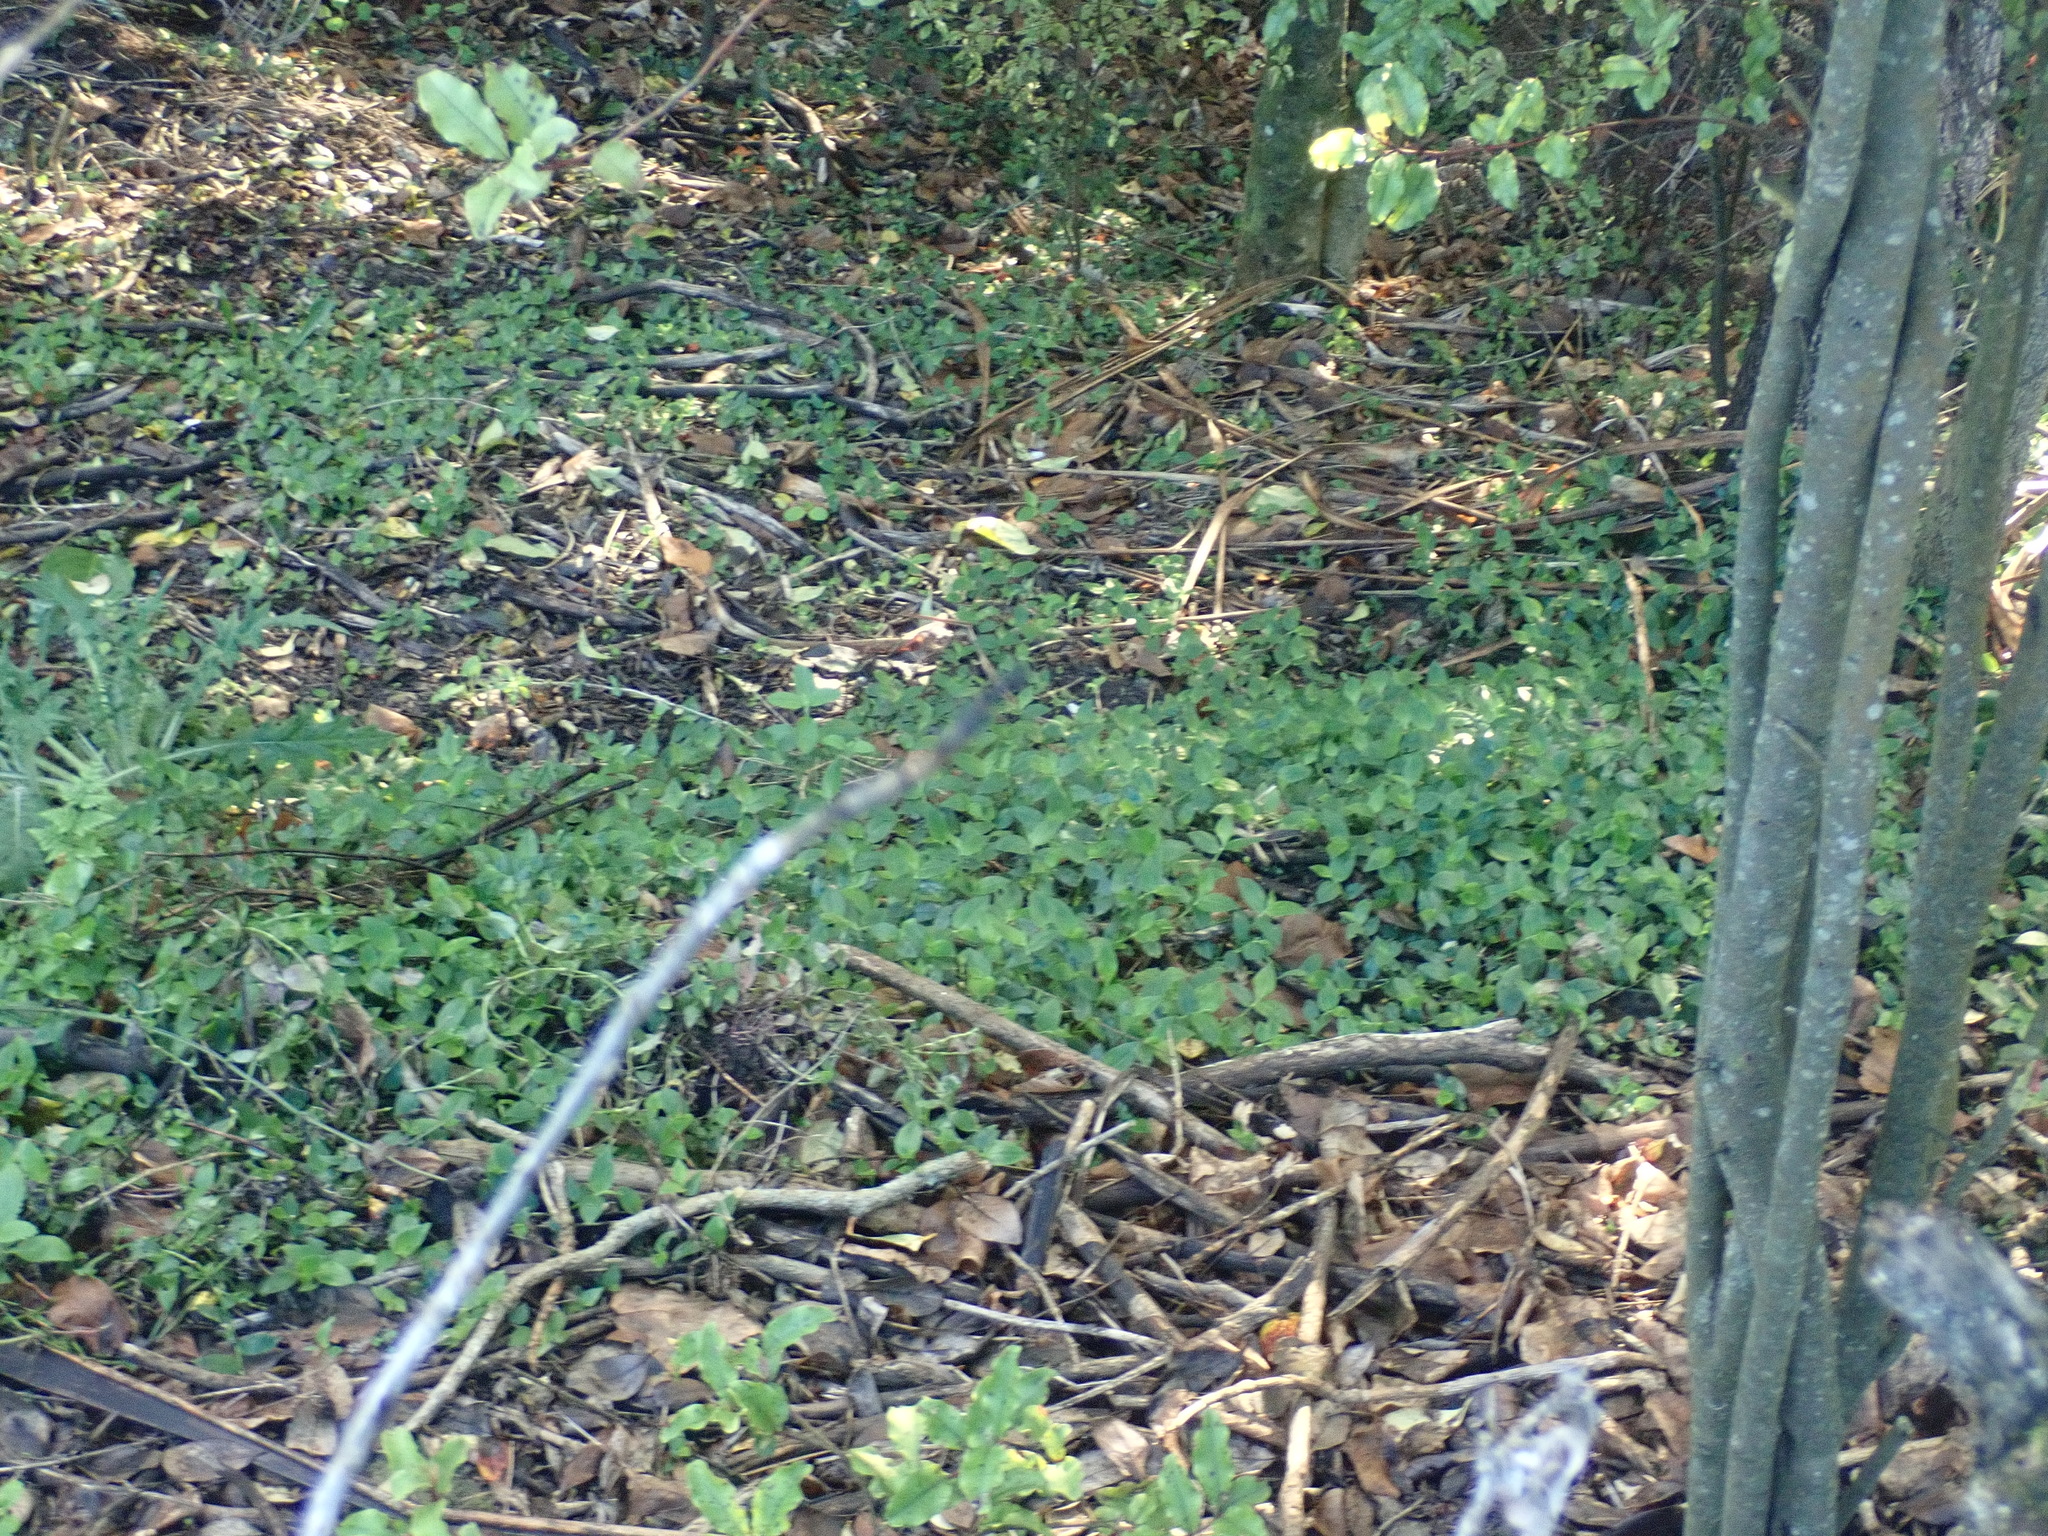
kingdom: Plantae
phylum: Tracheophyta
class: Liliopsida
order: Commelinales
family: Commelinaceae
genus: Tradescantia
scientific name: Tradescantia fluminensis
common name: Wandering-jew
